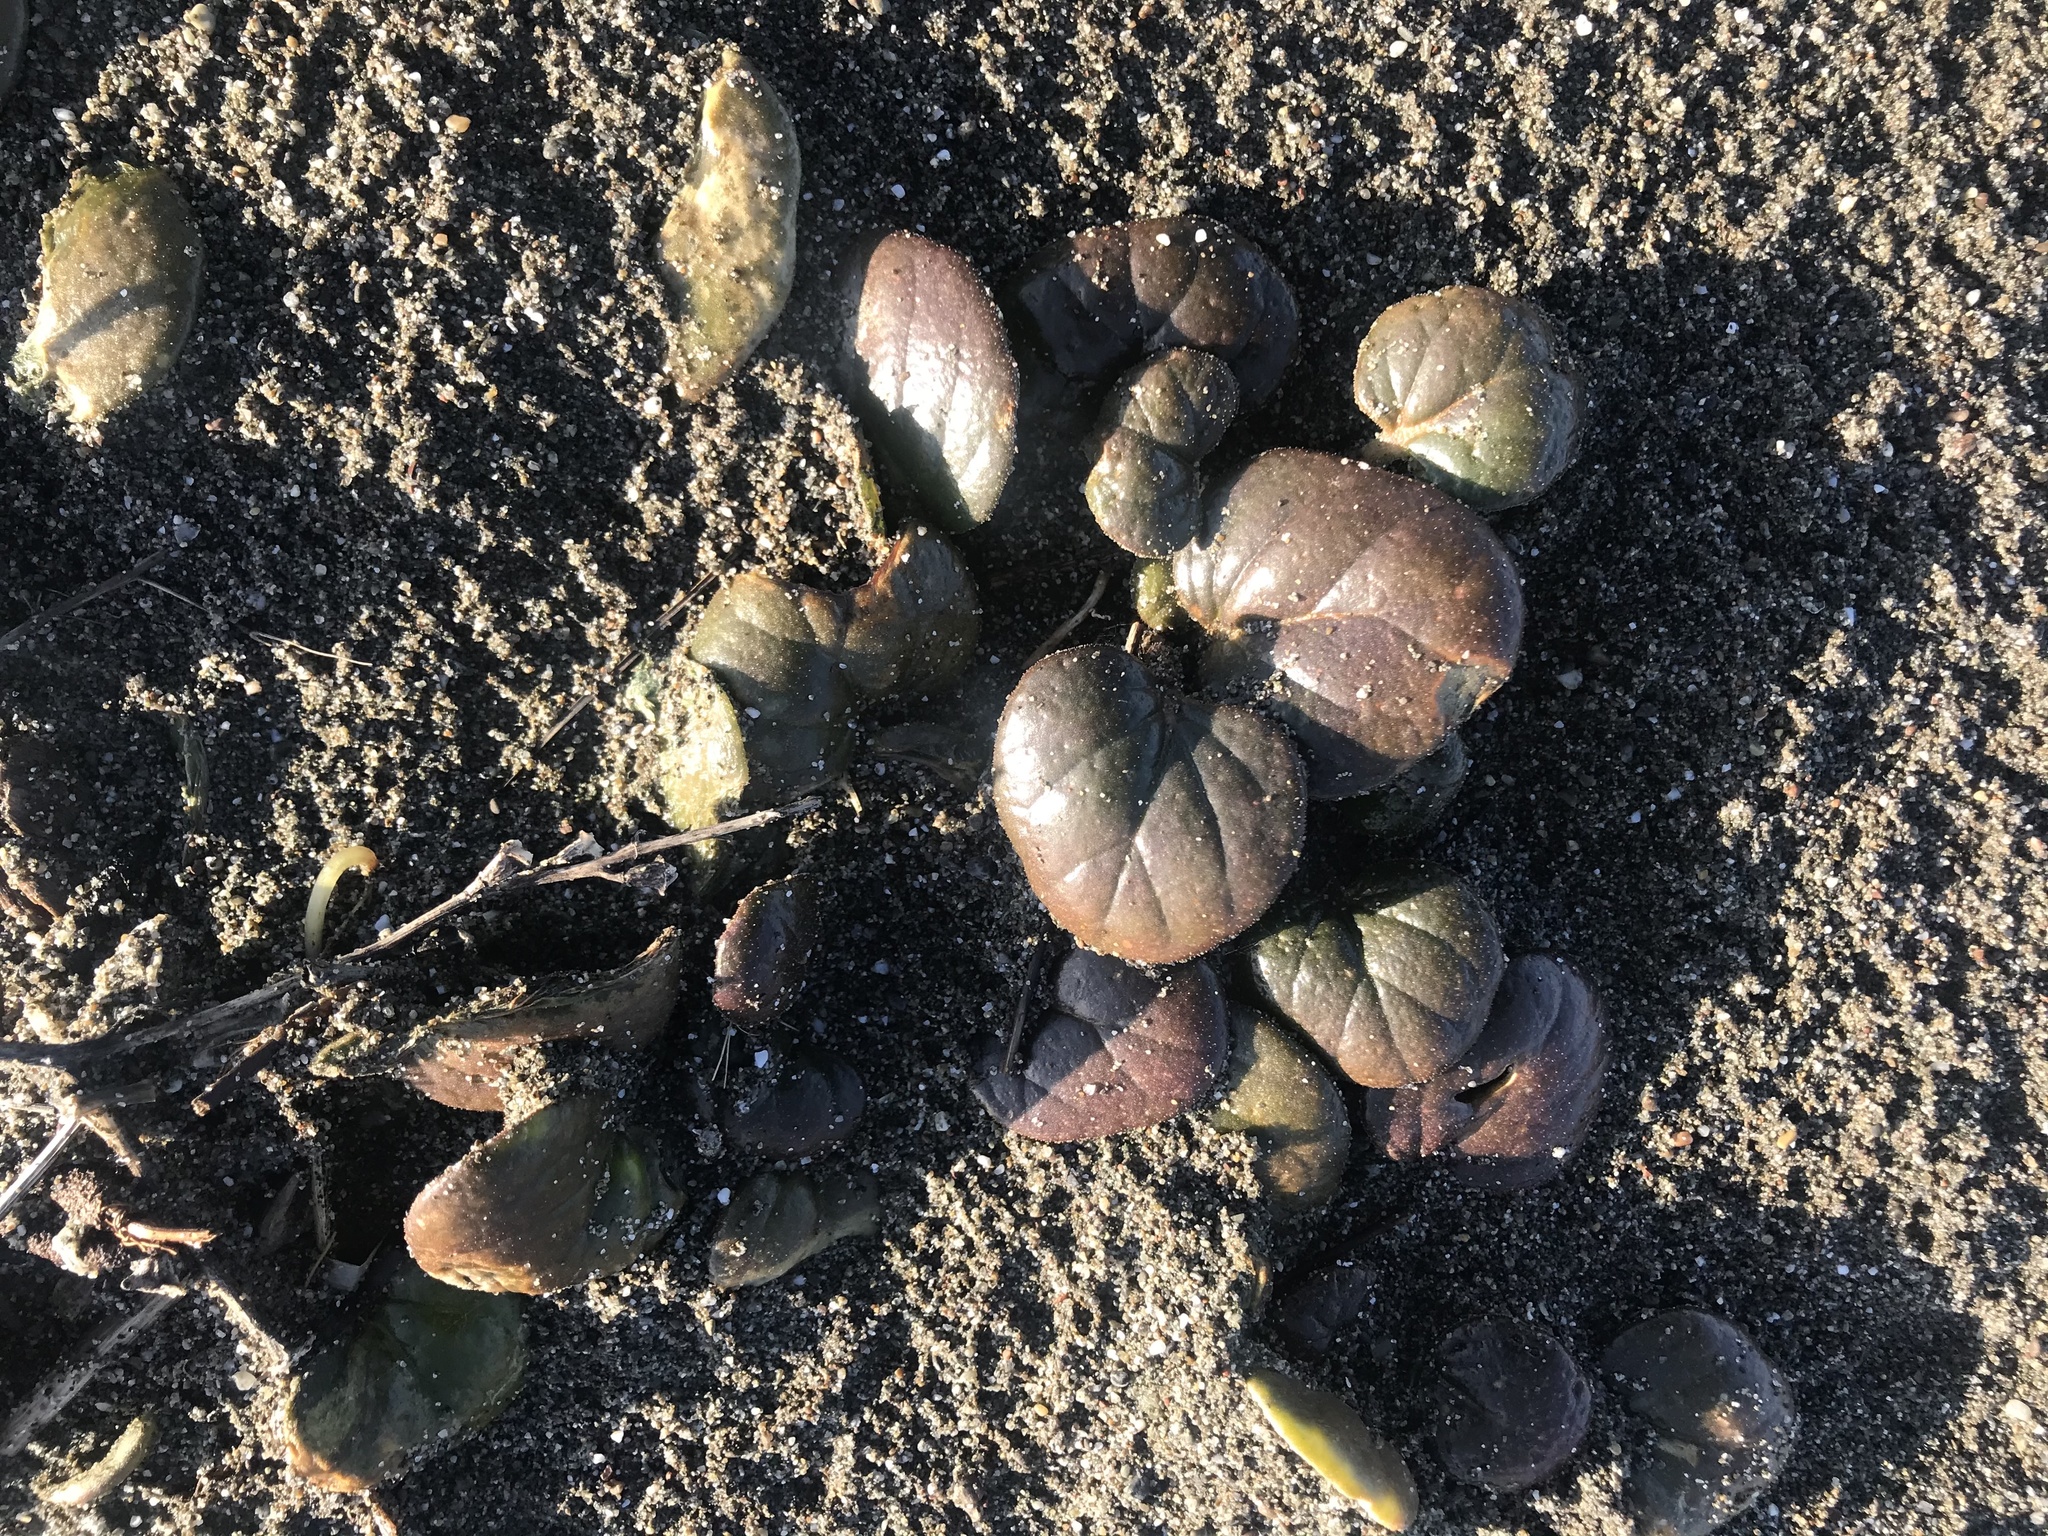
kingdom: Plantae
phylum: Tracheophyta
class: Magnoliopsida
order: Caryophyllales
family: Nyctaginaceae
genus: Abronia
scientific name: Abronia latifolia
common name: Yellow sand-verbena
